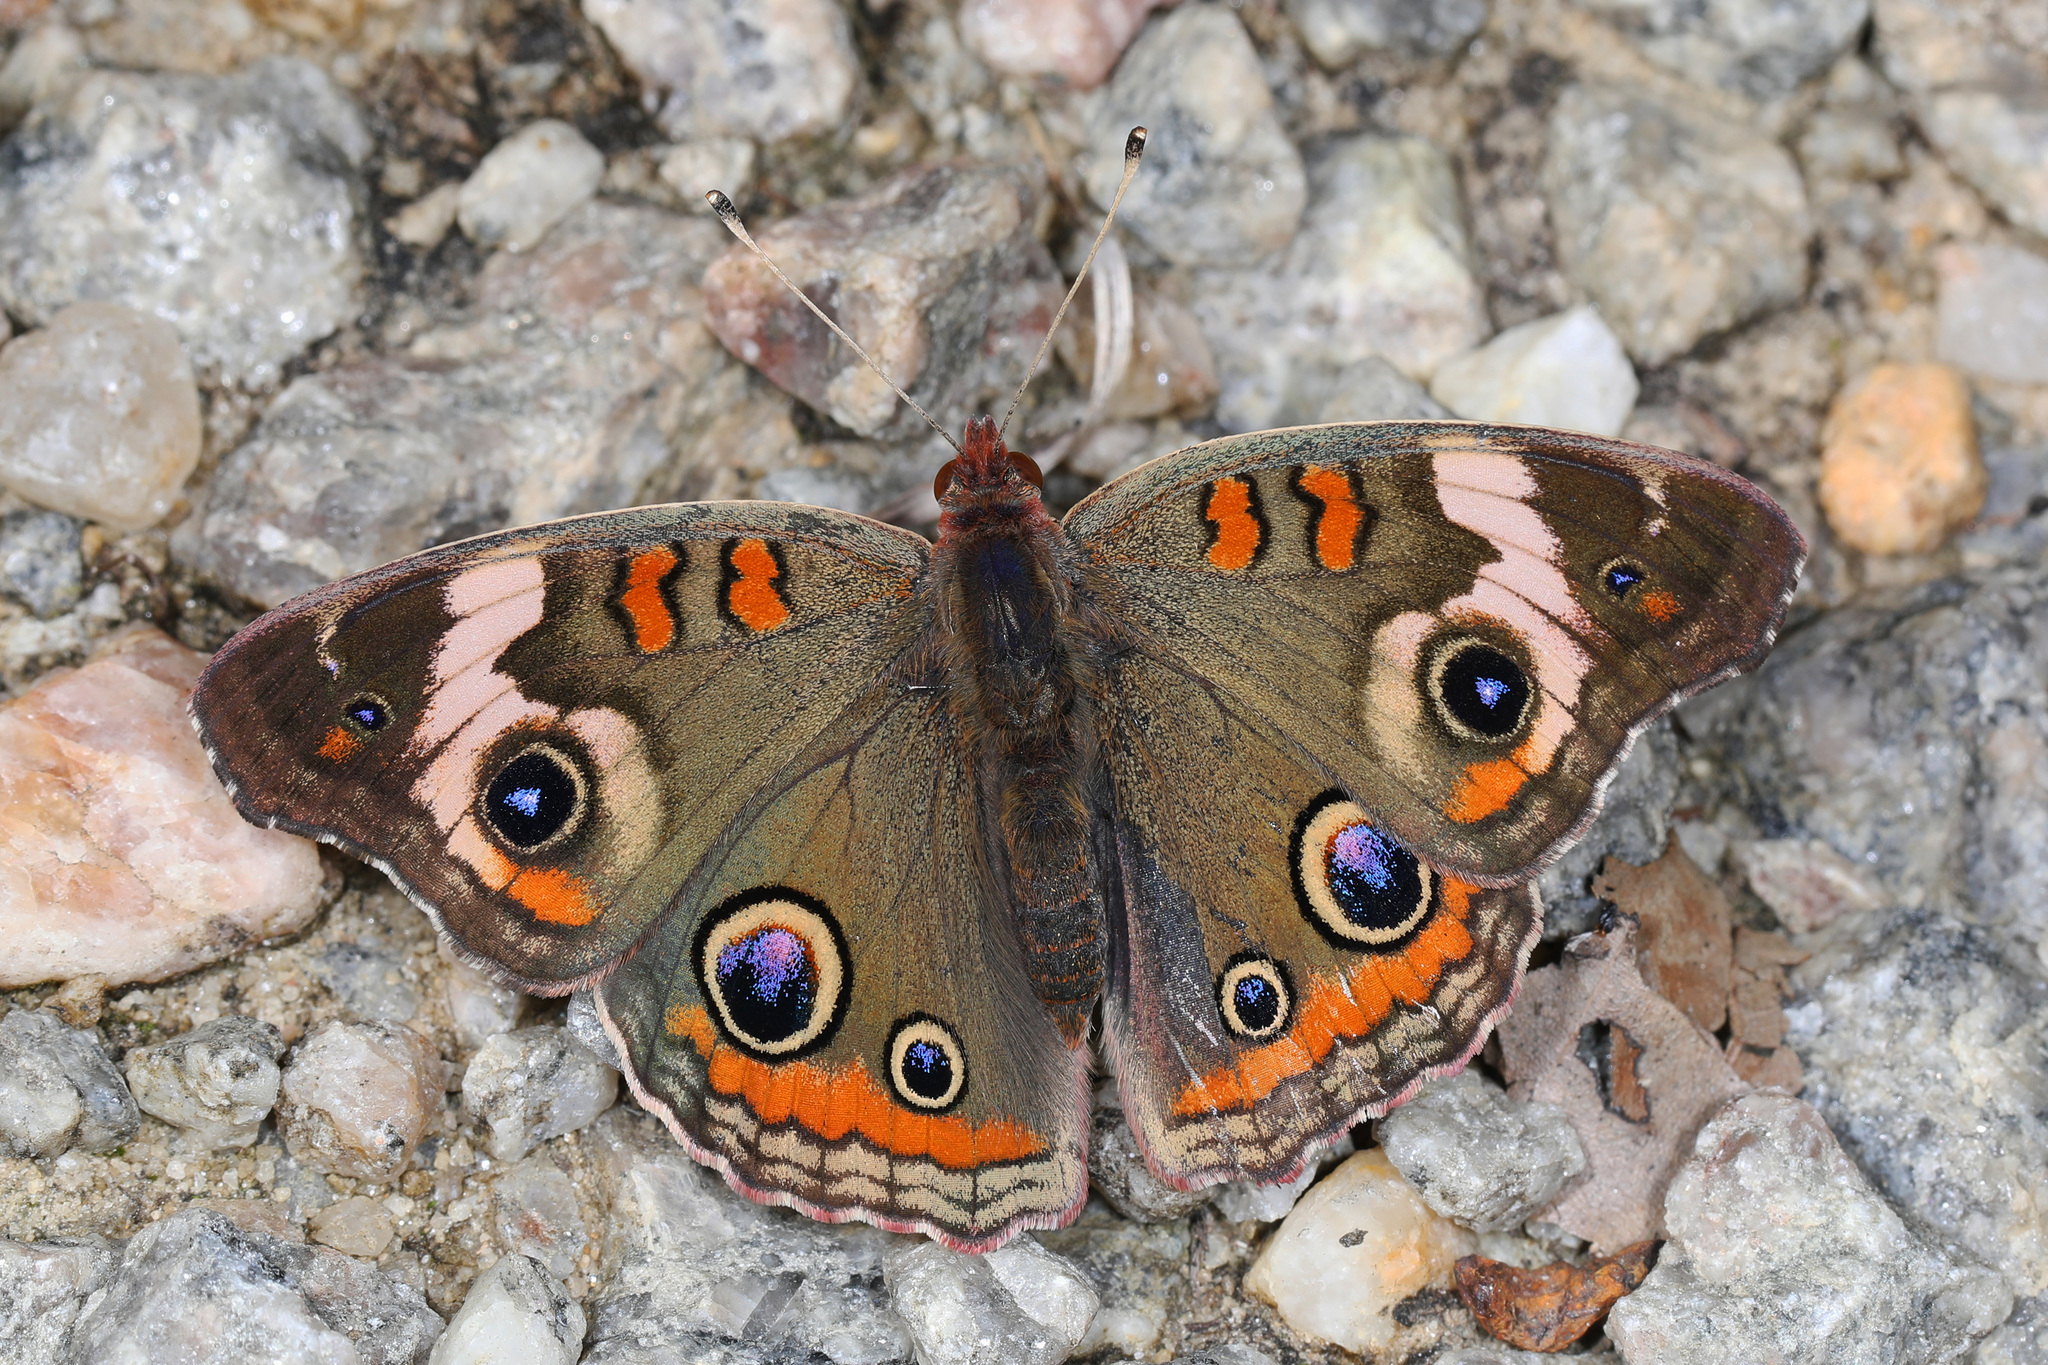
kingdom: Animalia
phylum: Arthropoda
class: Insecta
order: Lepidoptera
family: Nymphalidae
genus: Junonia
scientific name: Junonia coenia
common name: Common buckeye
